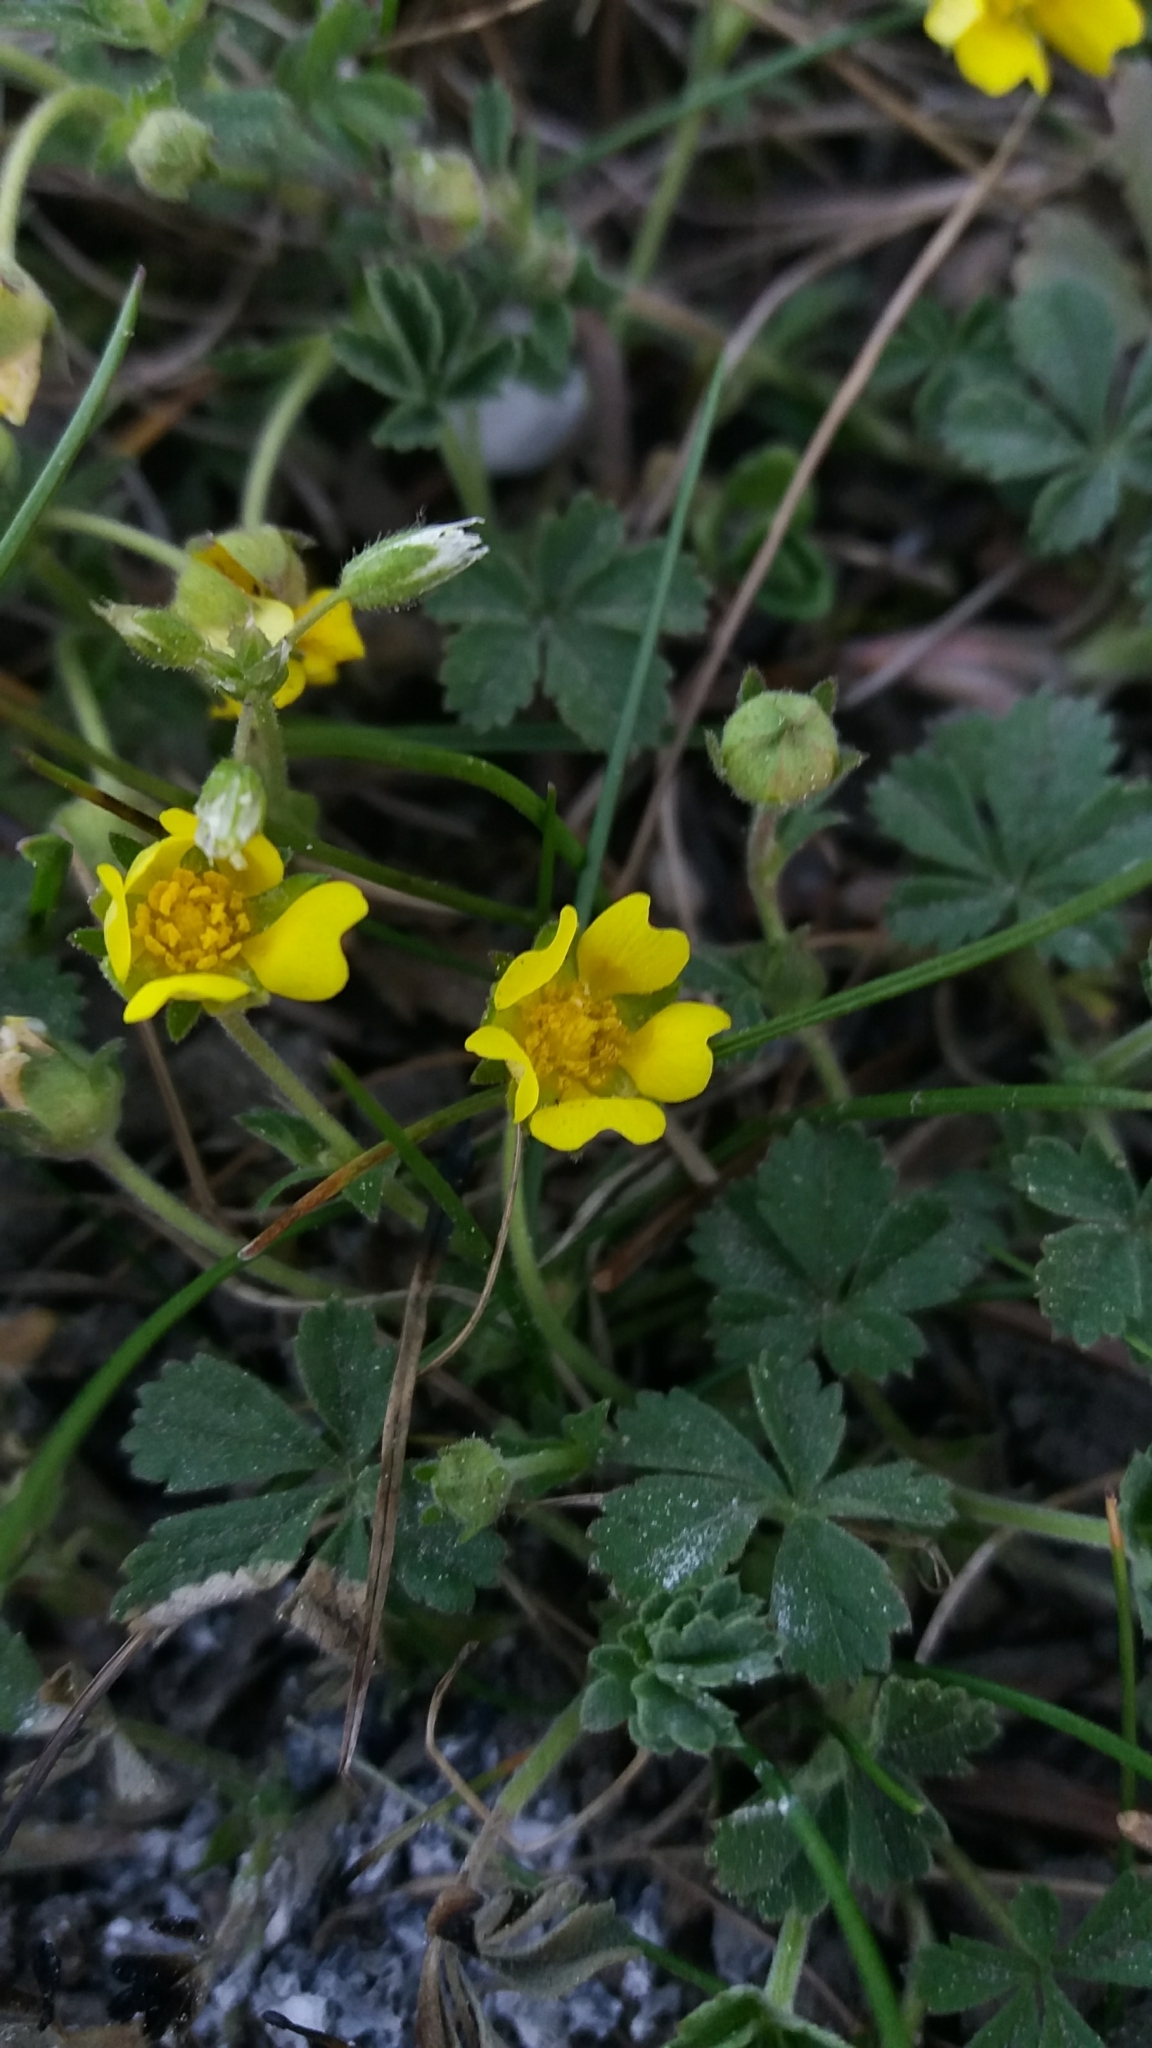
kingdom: Plantae
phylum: Tracheophyta
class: Magnoliopsida
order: Rosales
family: Rosaceae
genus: Potentilla
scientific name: Potentilla incana
